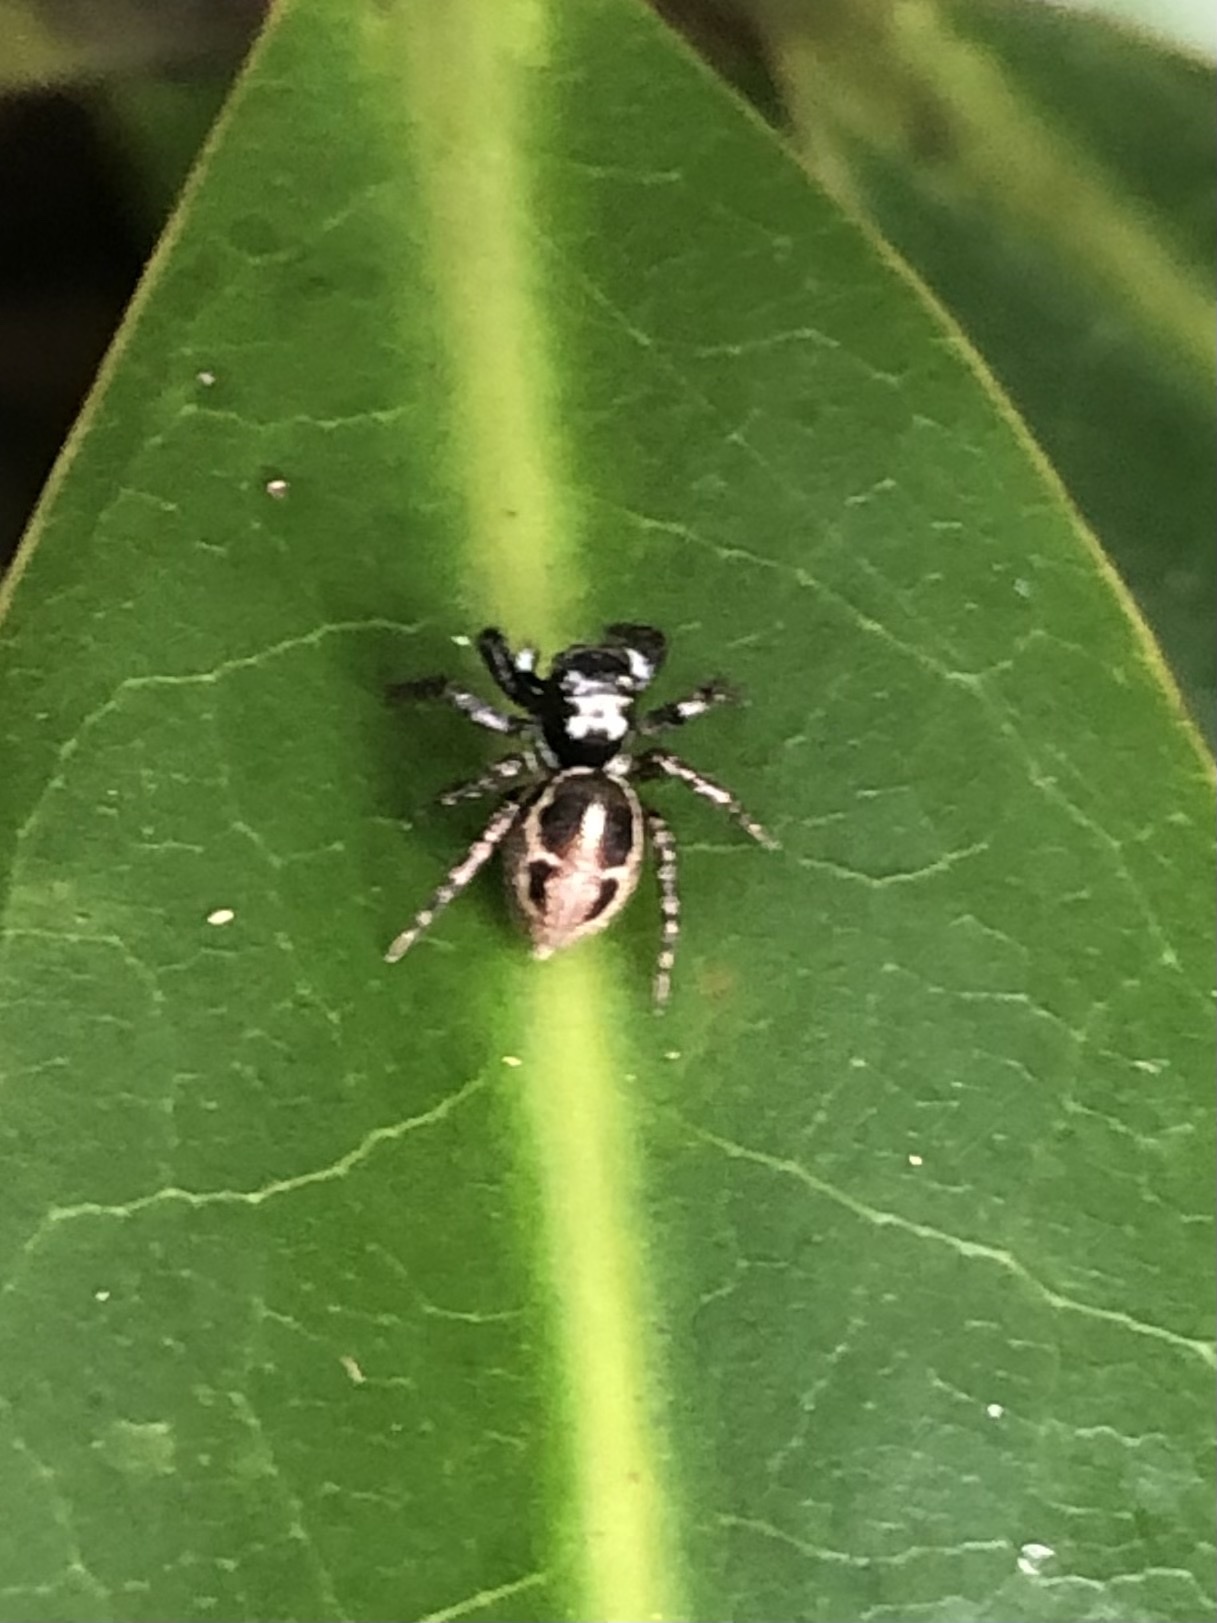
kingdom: Animalia
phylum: Arthropoda
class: Arachnida
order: Araneae
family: Salticidae
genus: Anasaitis
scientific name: Anasaitis canosa
